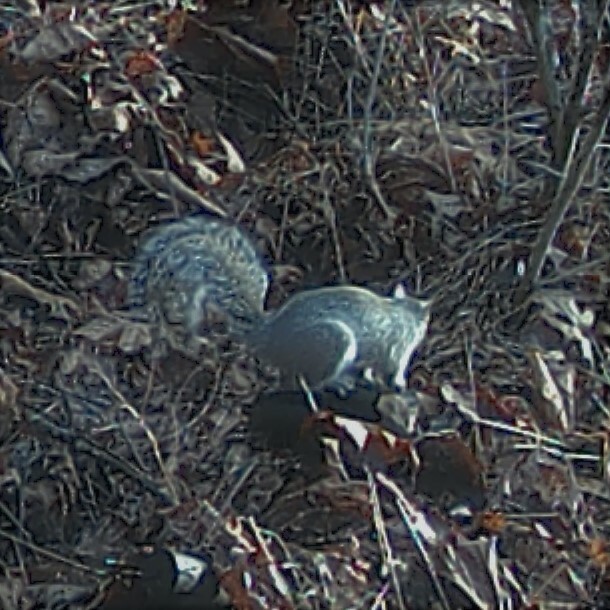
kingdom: Animalia
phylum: Chordata
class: Mammalia
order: Rodentia
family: Sciuridae
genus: Sciurus
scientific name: Sciurus carolinensis
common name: Eastern gray squirrel
